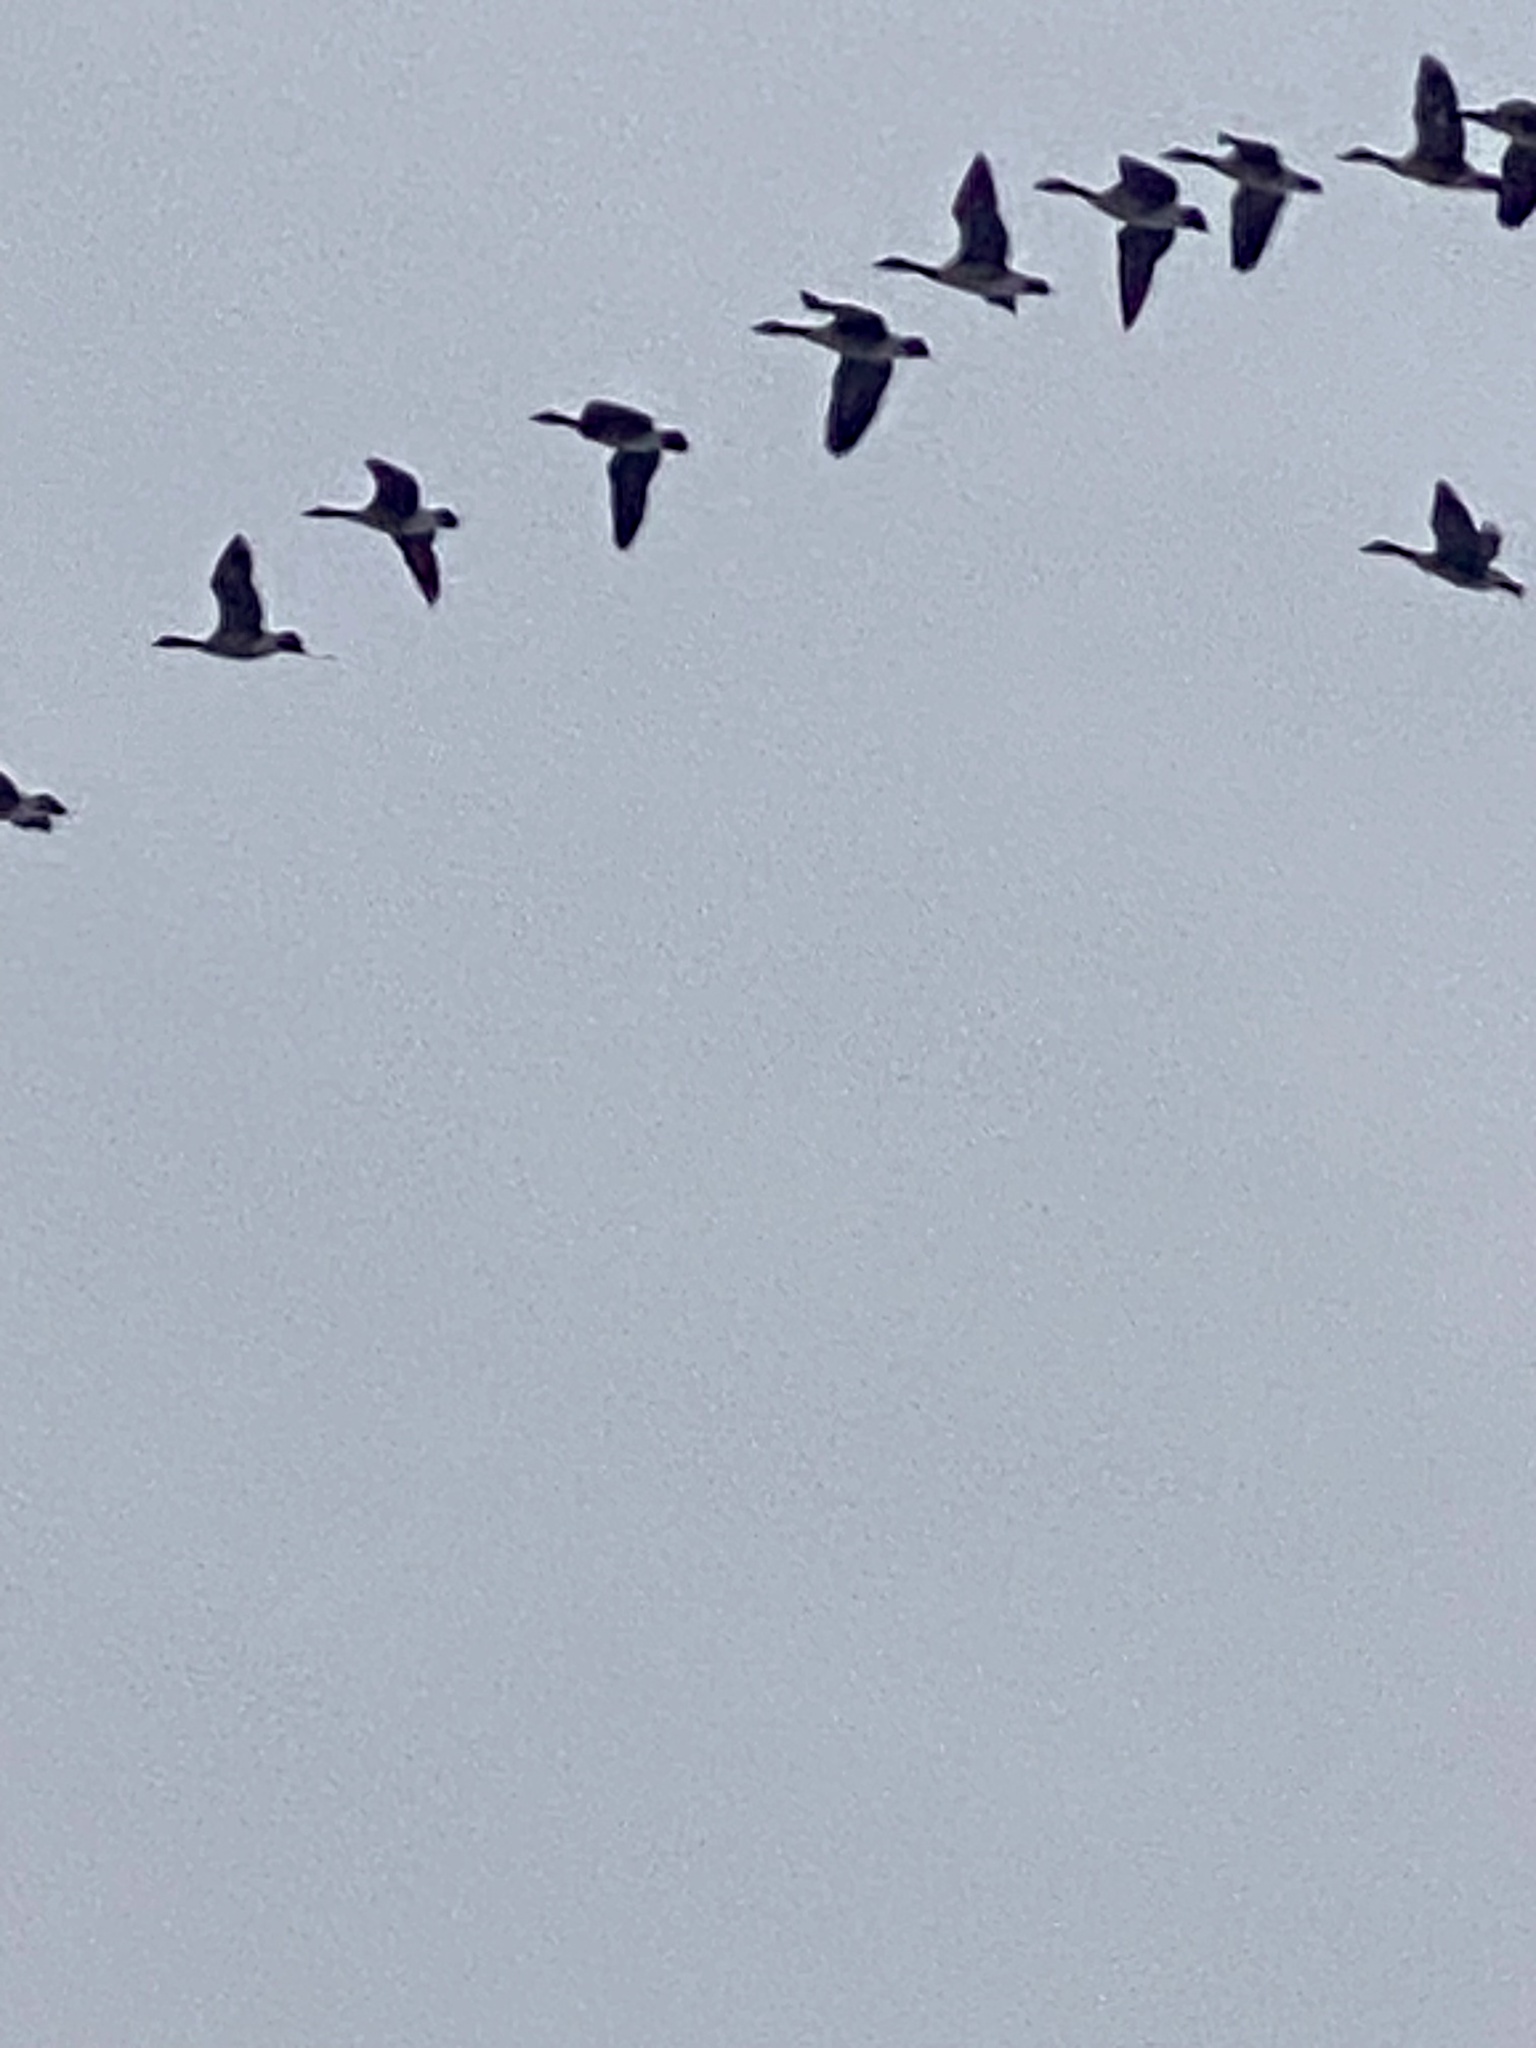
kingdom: Animalia
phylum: Chordata
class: Aves
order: Anseriformes
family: Anatidae
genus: Branta
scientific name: Branta canadensis
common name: Canada goose
